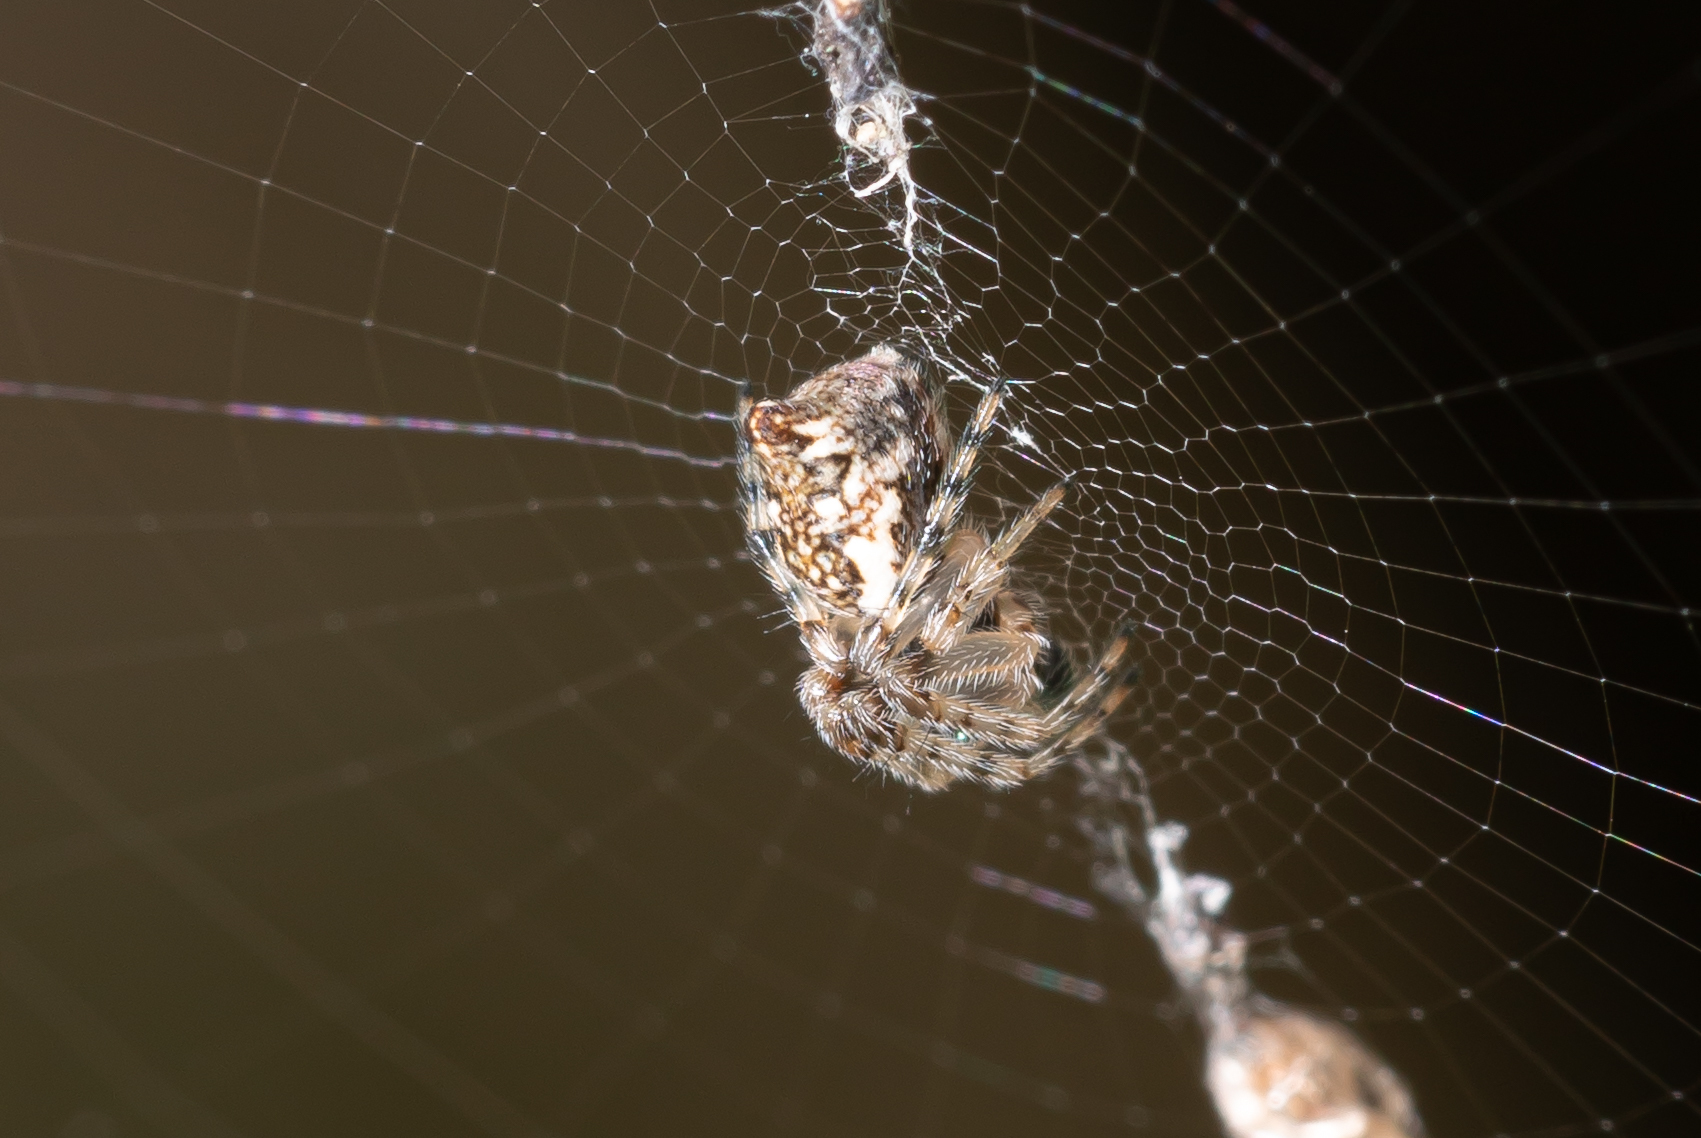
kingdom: Animalia
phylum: Arthropoda
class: Arachnida
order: Araneae
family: Araneidae
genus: Cyclosa
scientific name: Cyclosa conica
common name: Conical trashline orbweaver
